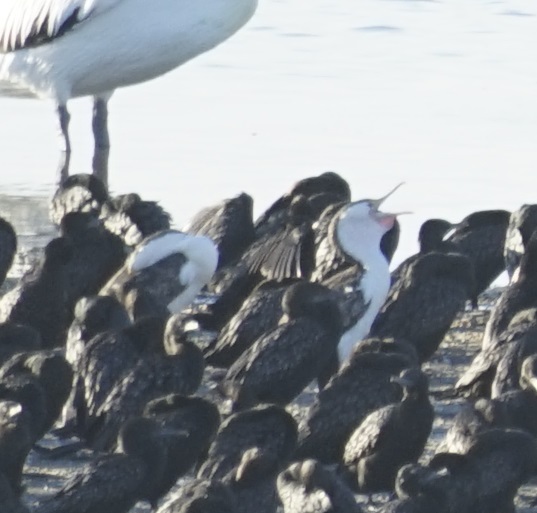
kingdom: Animalia
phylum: Chordata
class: Aves
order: Suliformes
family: Phalacrocoracidae
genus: Phalacrocorax
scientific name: Phalacrocorax varius
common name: Pied cormorant
